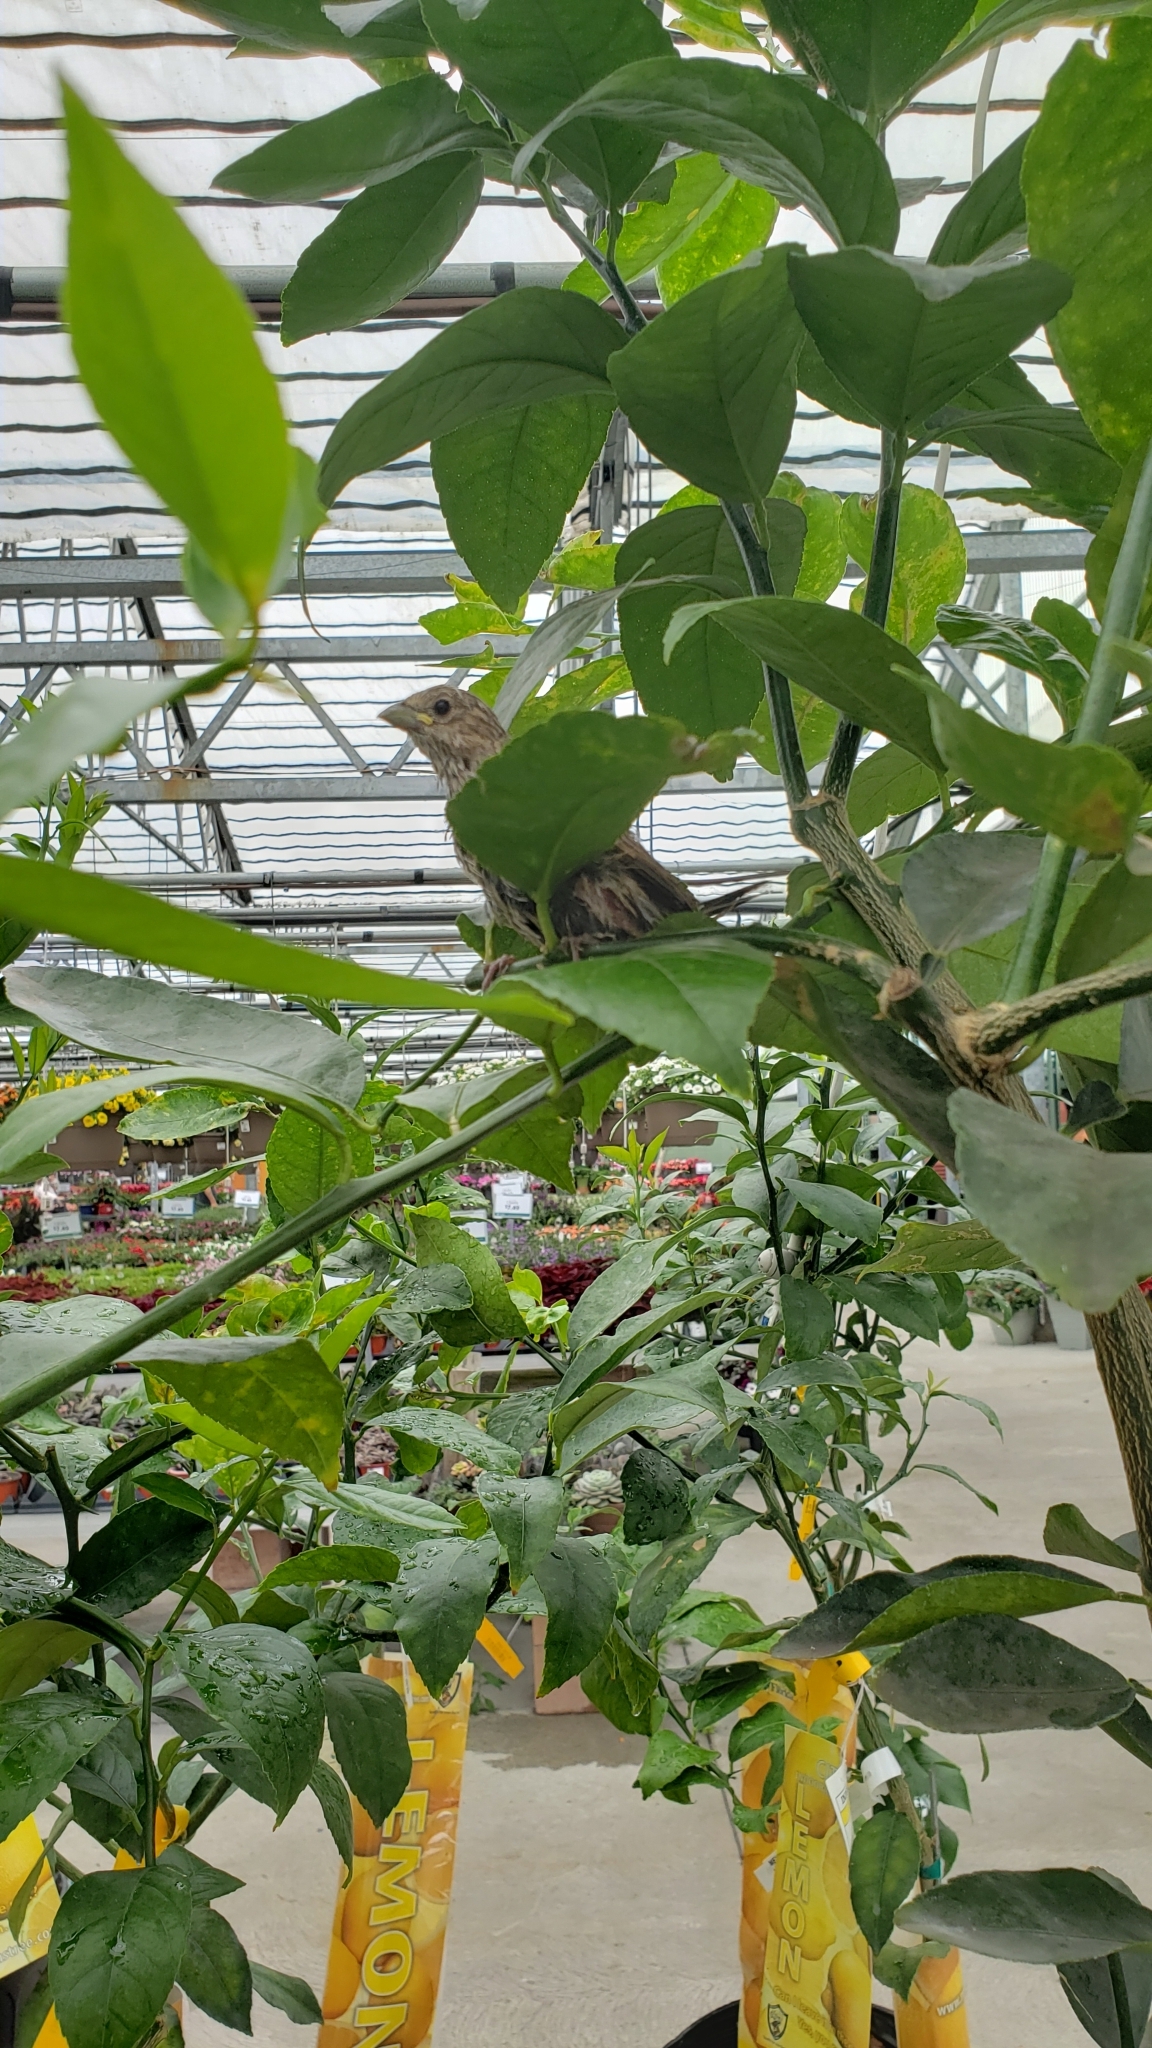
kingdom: Animalia
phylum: Chordata
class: Aves
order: Passeriformes
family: Fringillidae
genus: Haemorhous
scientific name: Haemorhous mexicanus
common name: House finch
